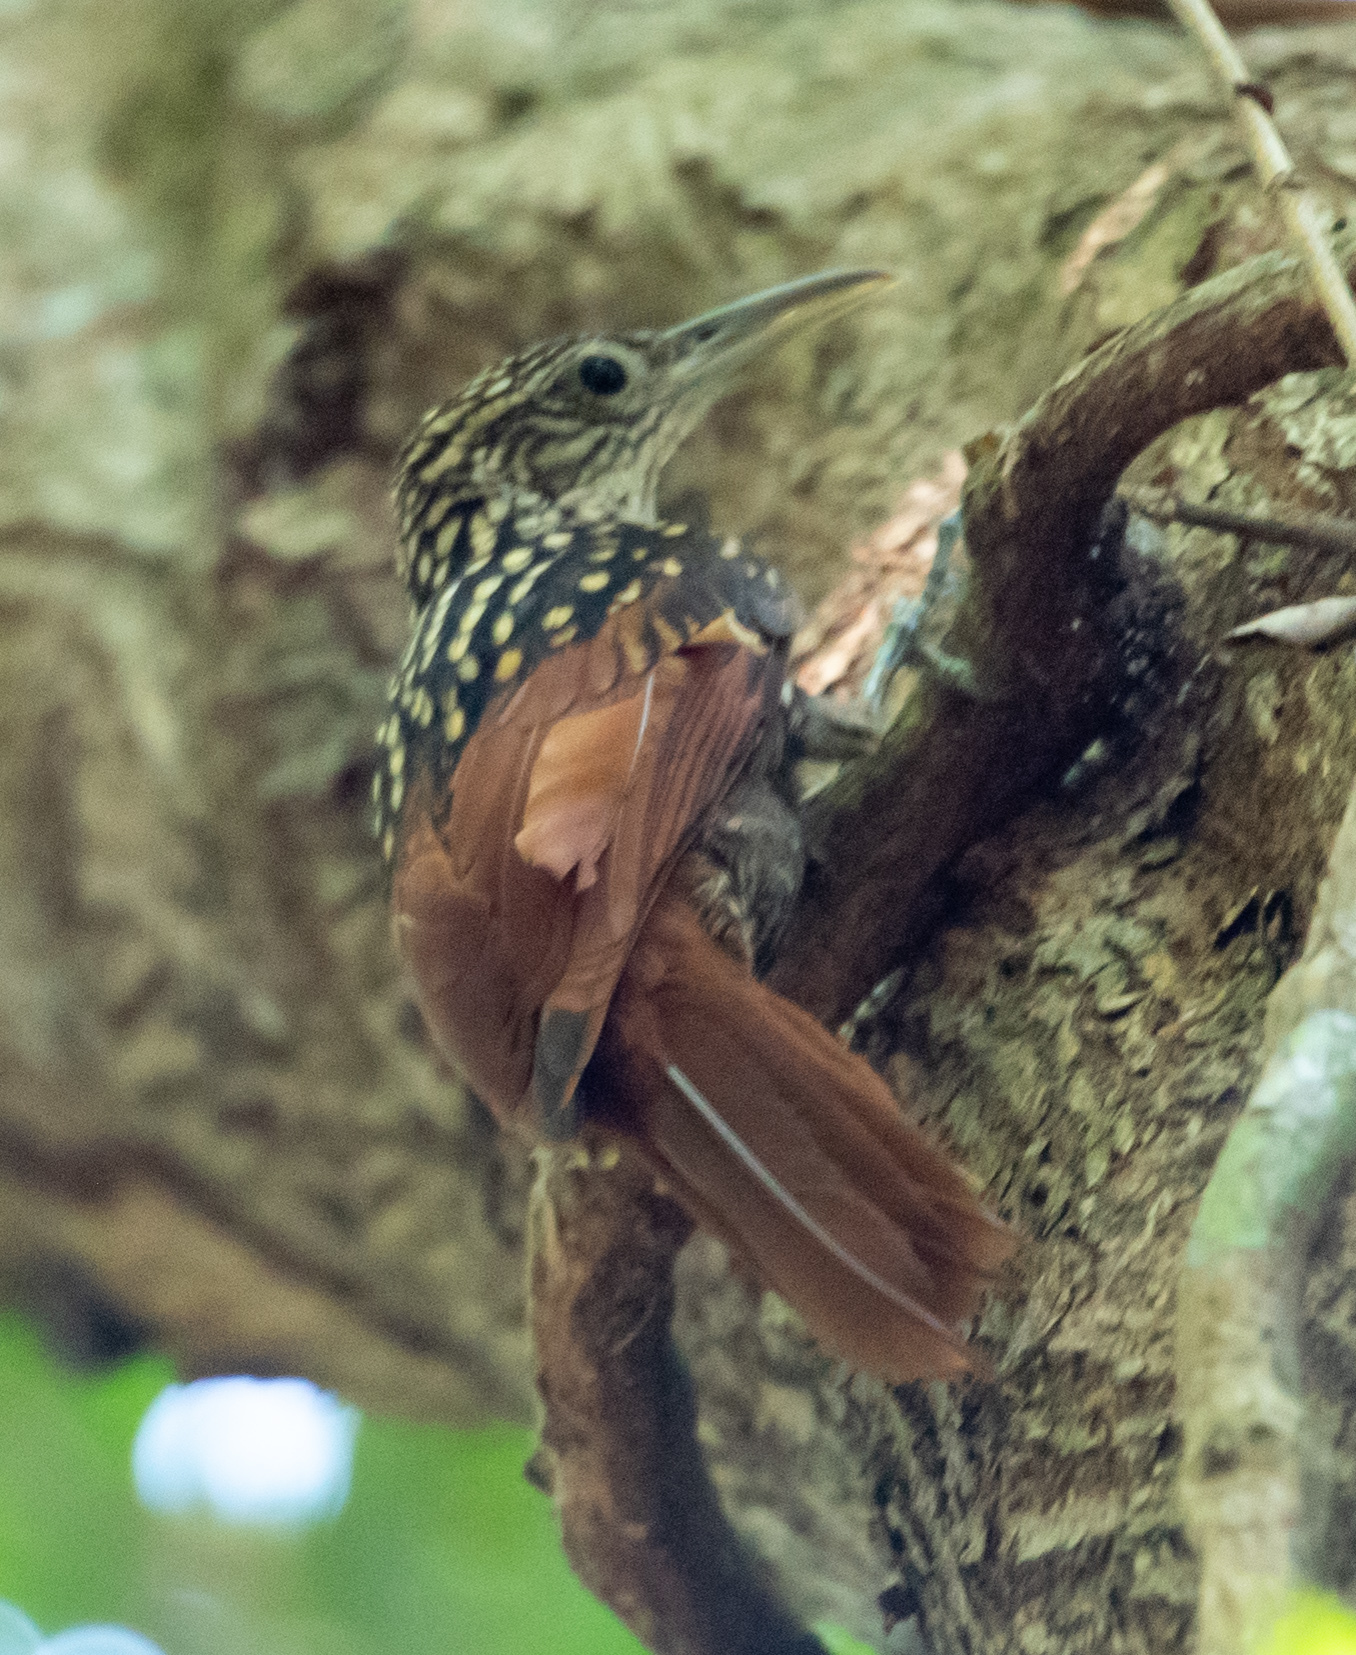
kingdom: Animalia
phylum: Chordata
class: Aves
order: Passeriformes
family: Furnariidae
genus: Xiphorhynchus
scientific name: Xiphorhynchus lachrymosus
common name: Black-striped woodcreeper
